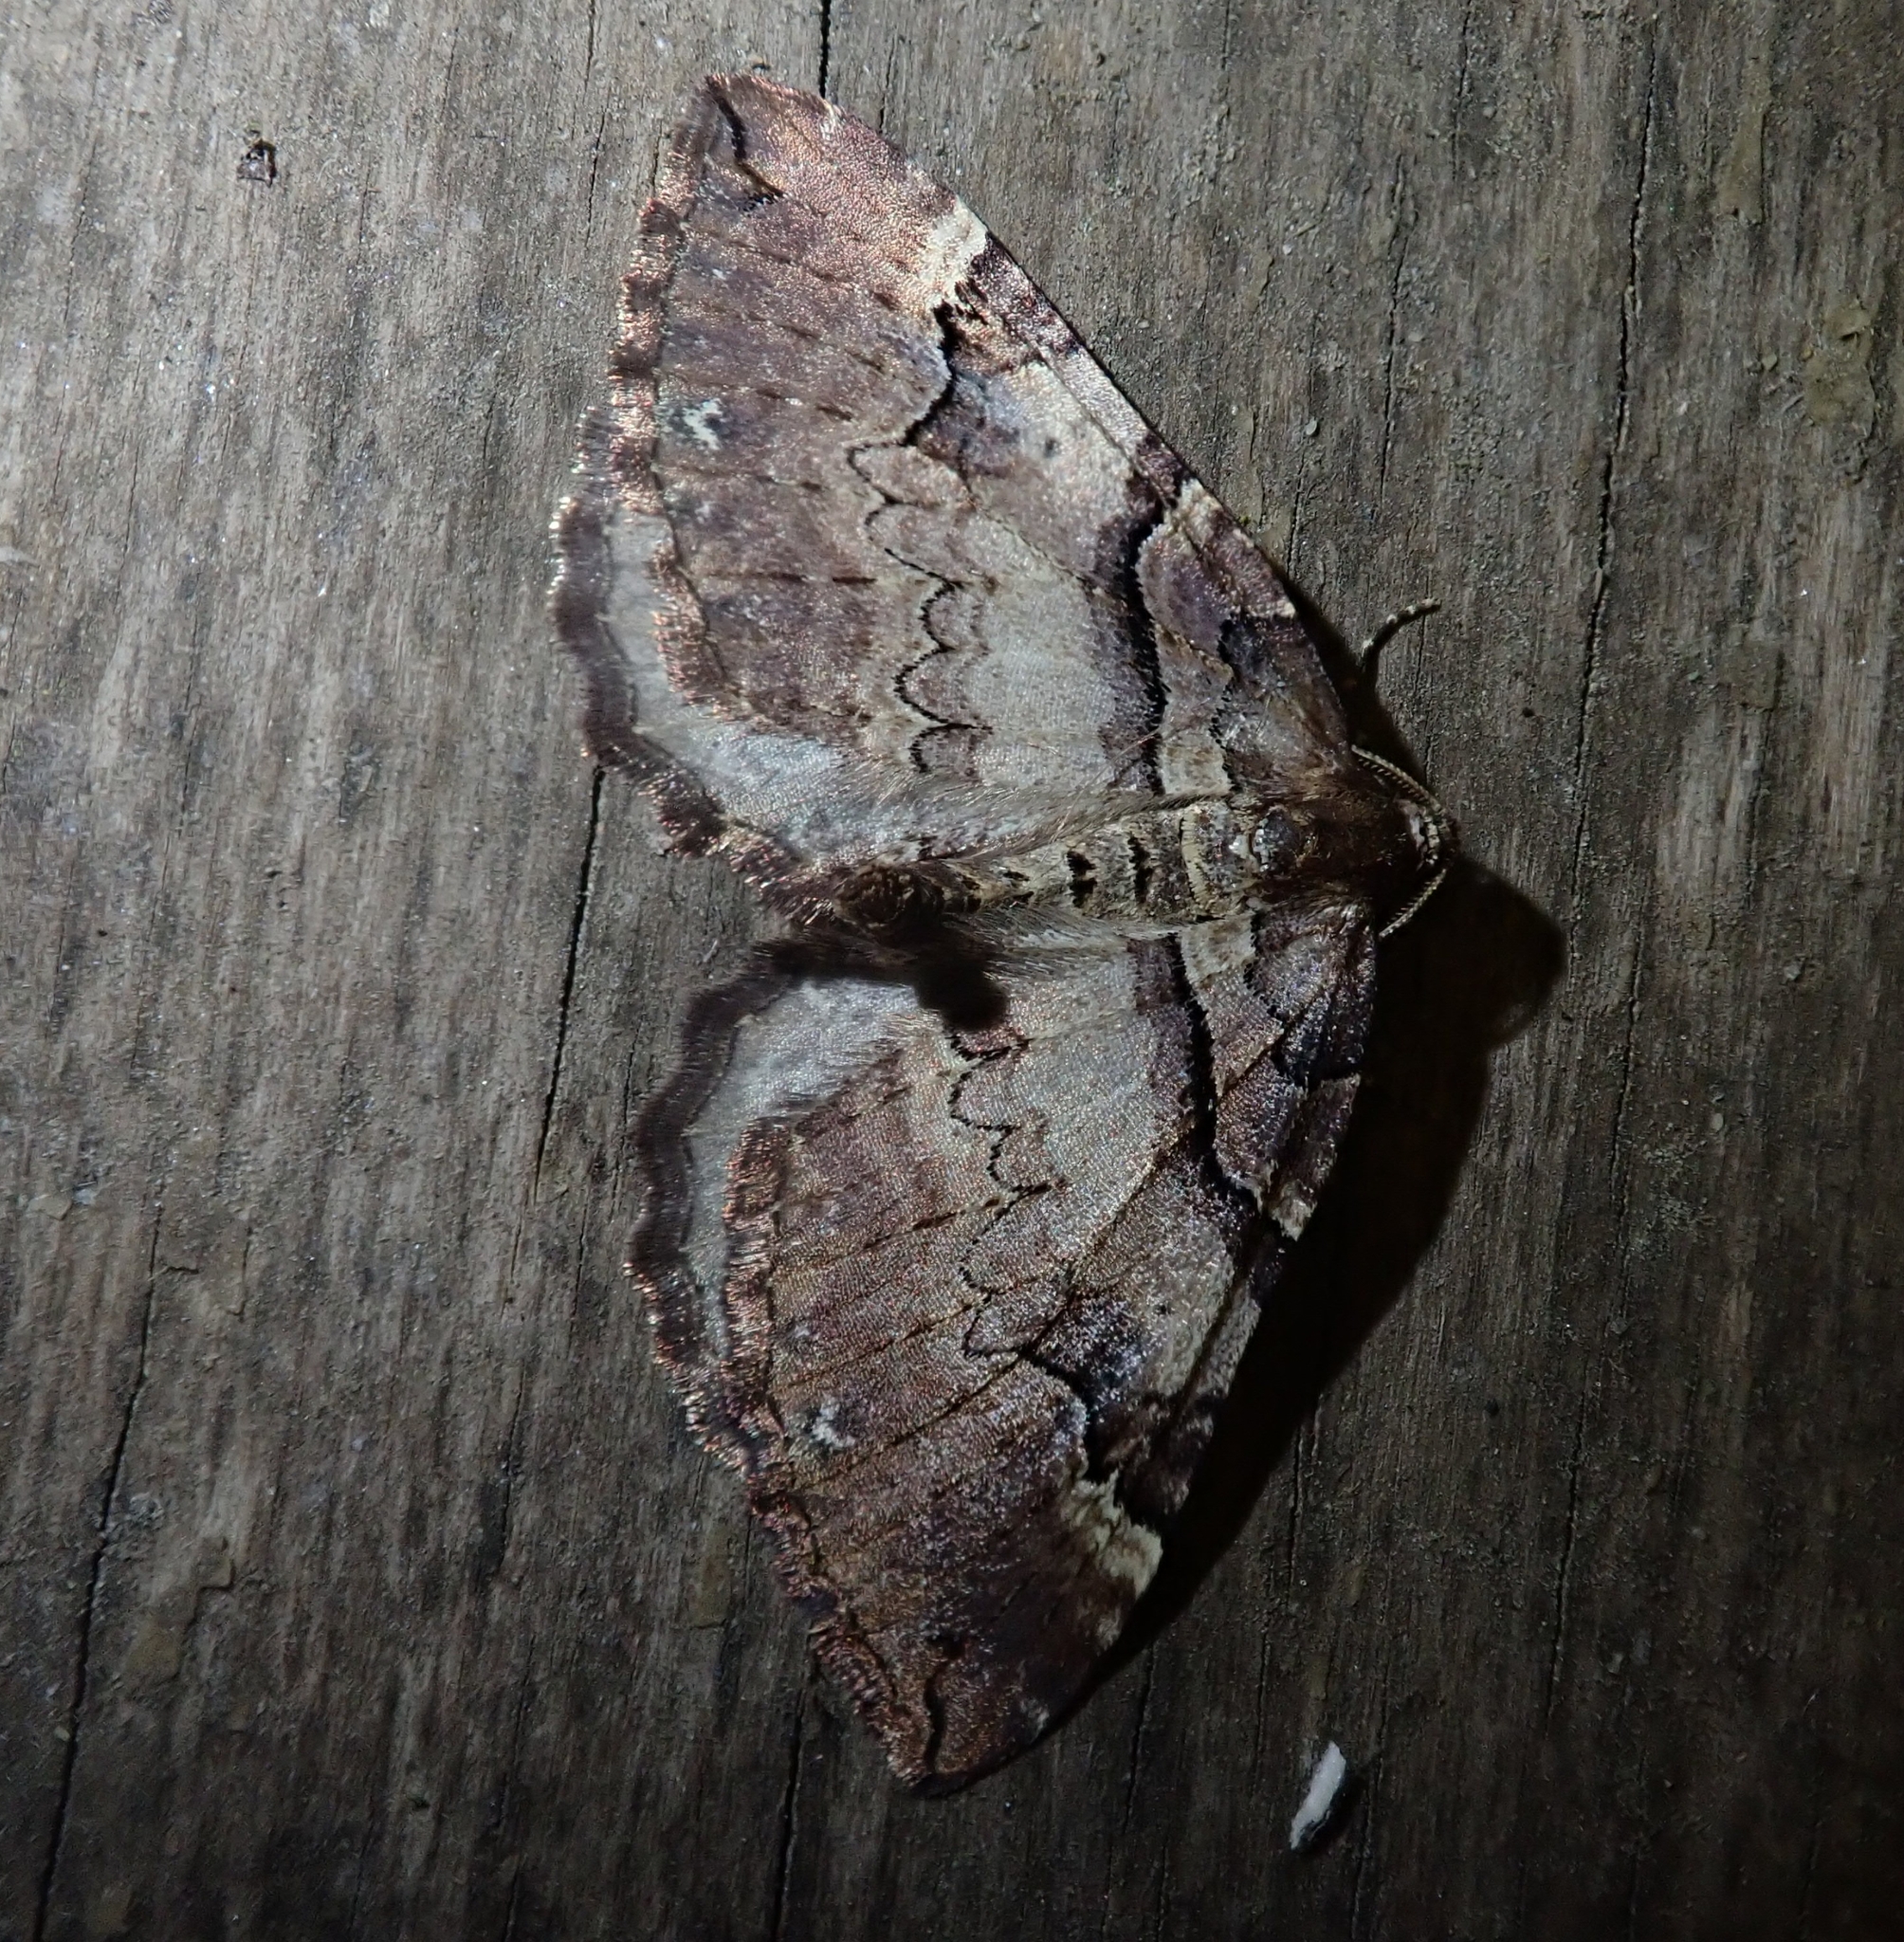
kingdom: Animalia
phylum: Arthropoda
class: Insecta
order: Lepidoptera
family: Geometridae
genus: Anticlea
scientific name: Anticlea badiata
